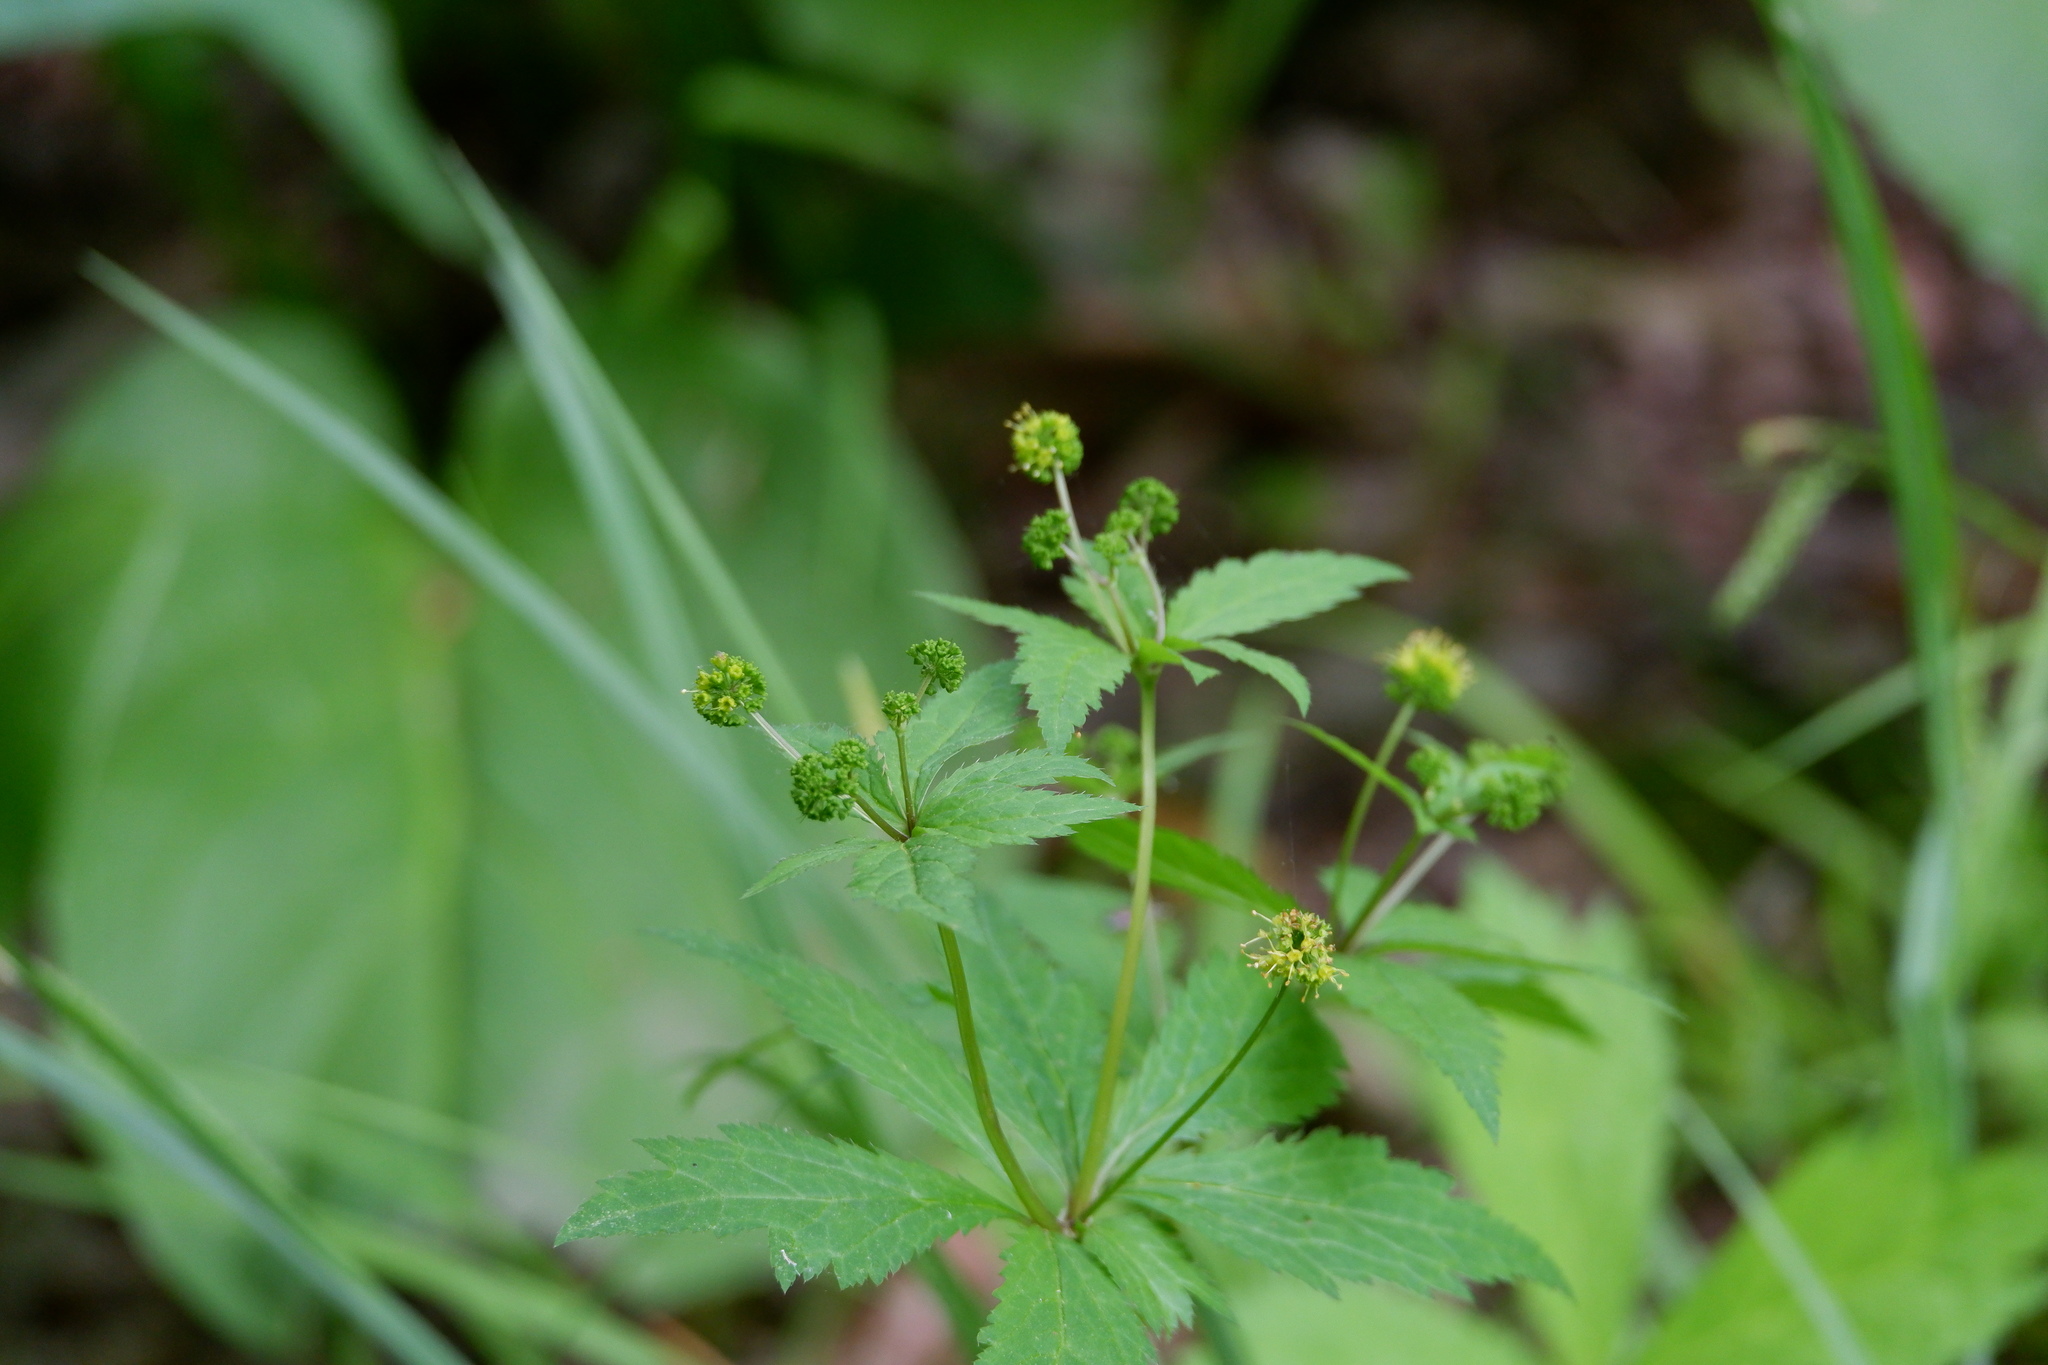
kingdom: Plantae
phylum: Tracheophyta
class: Magnoliopsida
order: Apiales
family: Apiaceae
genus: Sanicula
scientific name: Sanicula odorata
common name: Cluster sanicle
